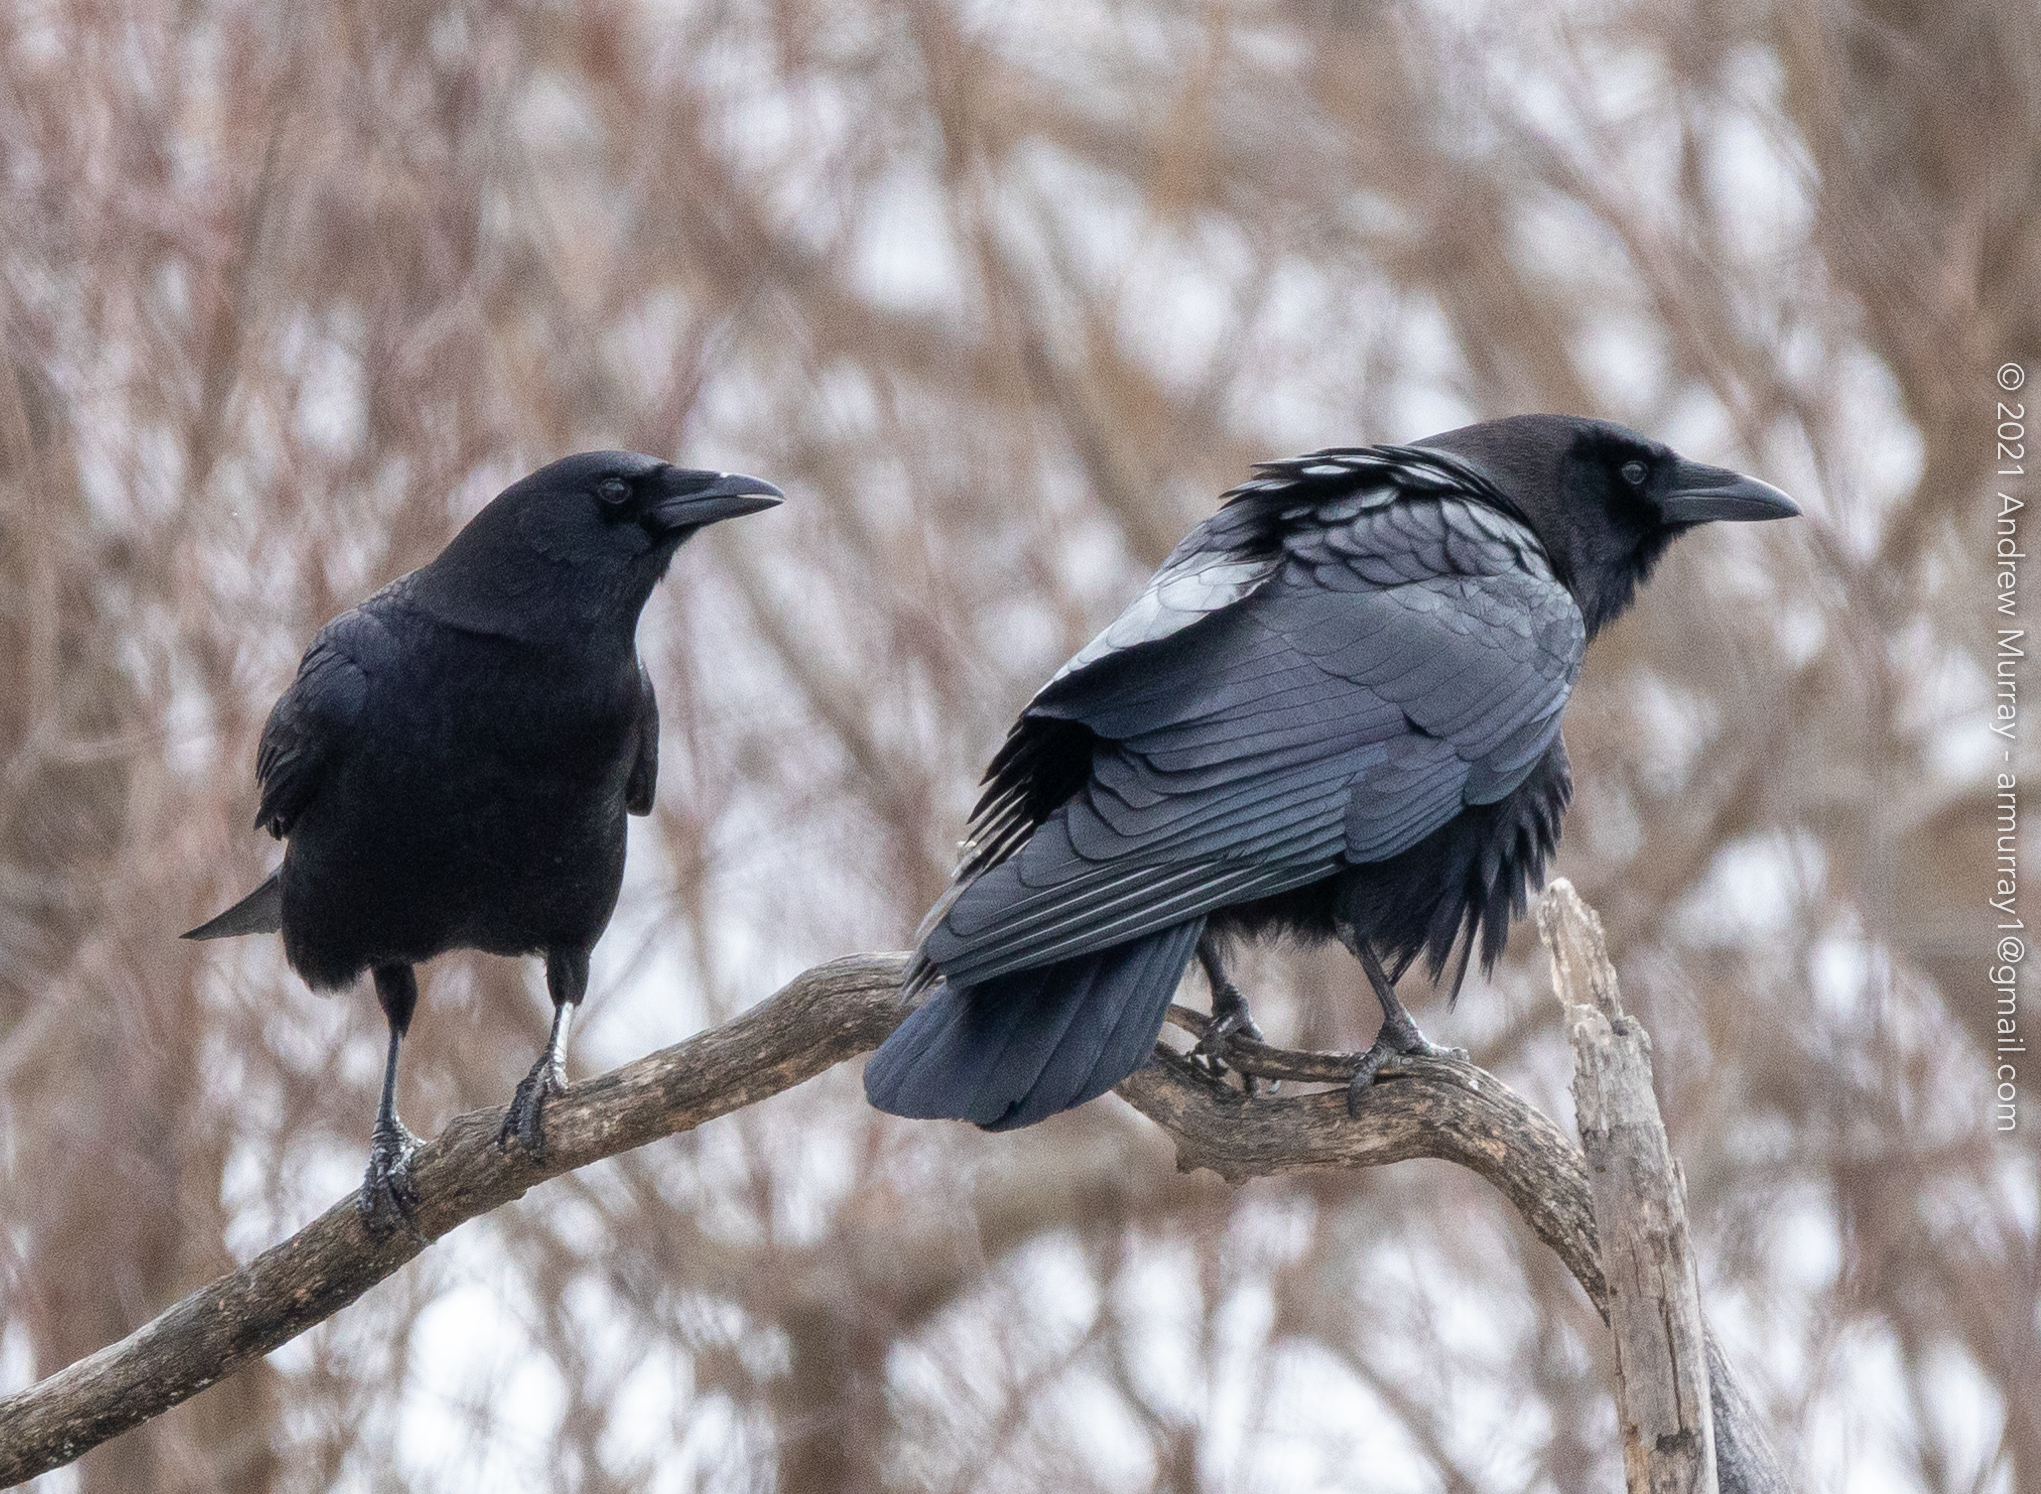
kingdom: Animalia
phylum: Chordata
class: Aves
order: Passeriformes
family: Corvidae
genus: Corvus
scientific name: Corvus brachyrhynchos
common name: American crow
